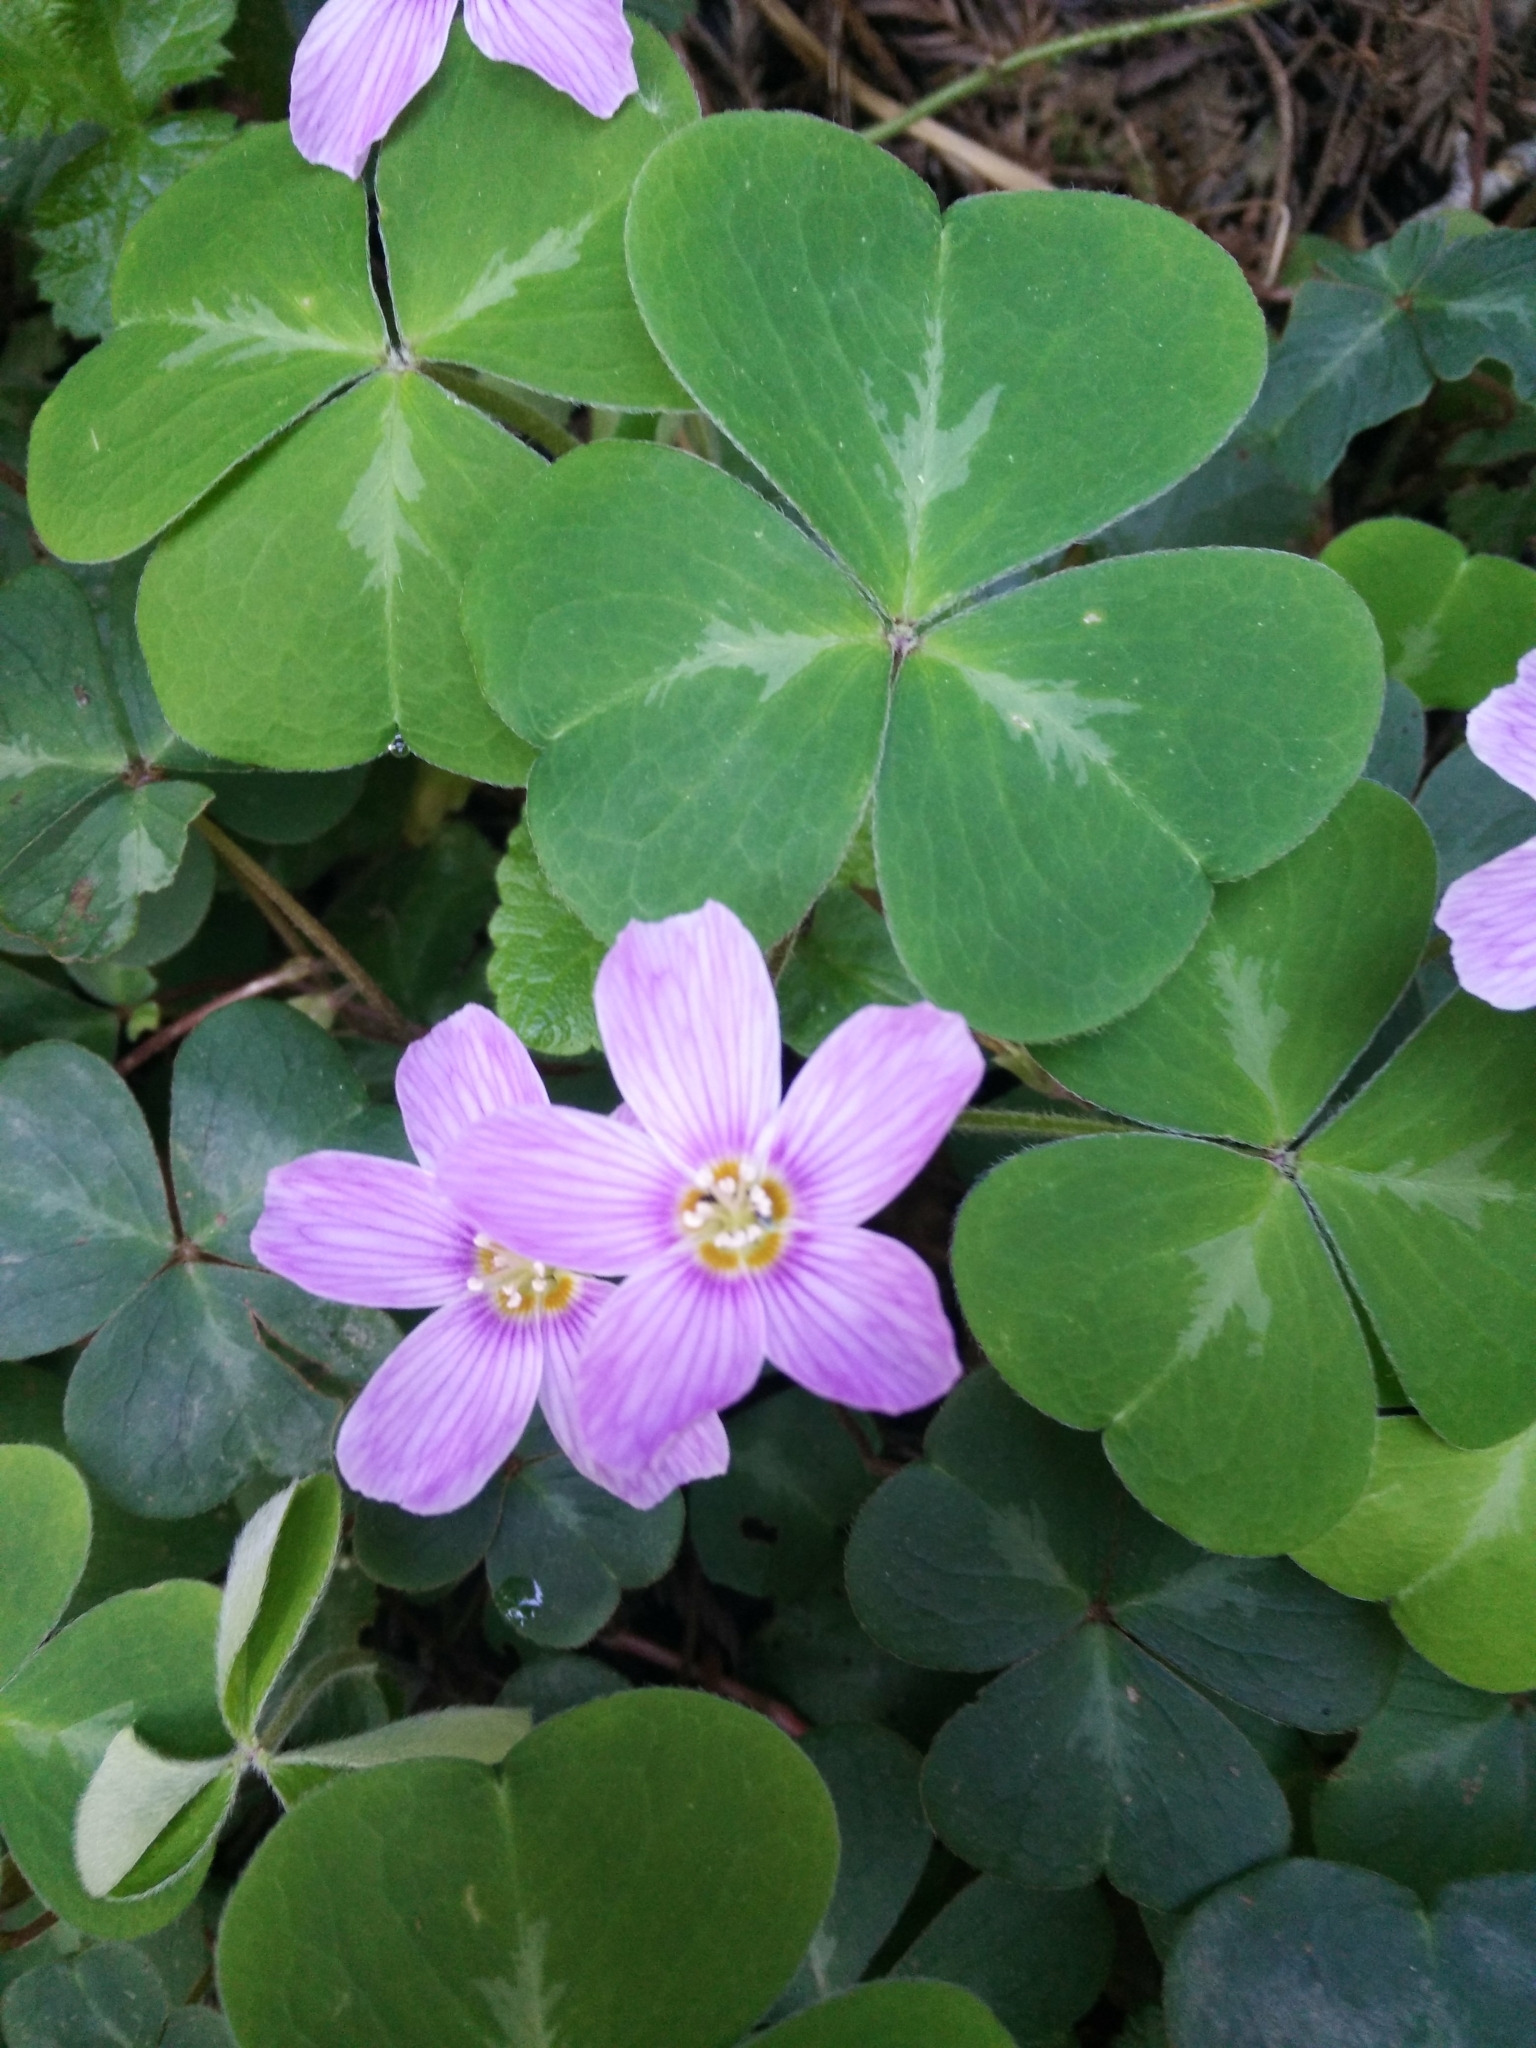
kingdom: Plantae
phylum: Tracheophyta
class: Magnoliopsida
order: Oxalidales
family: Oxalidaceae
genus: Oxalis
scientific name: Oxalis oregana
